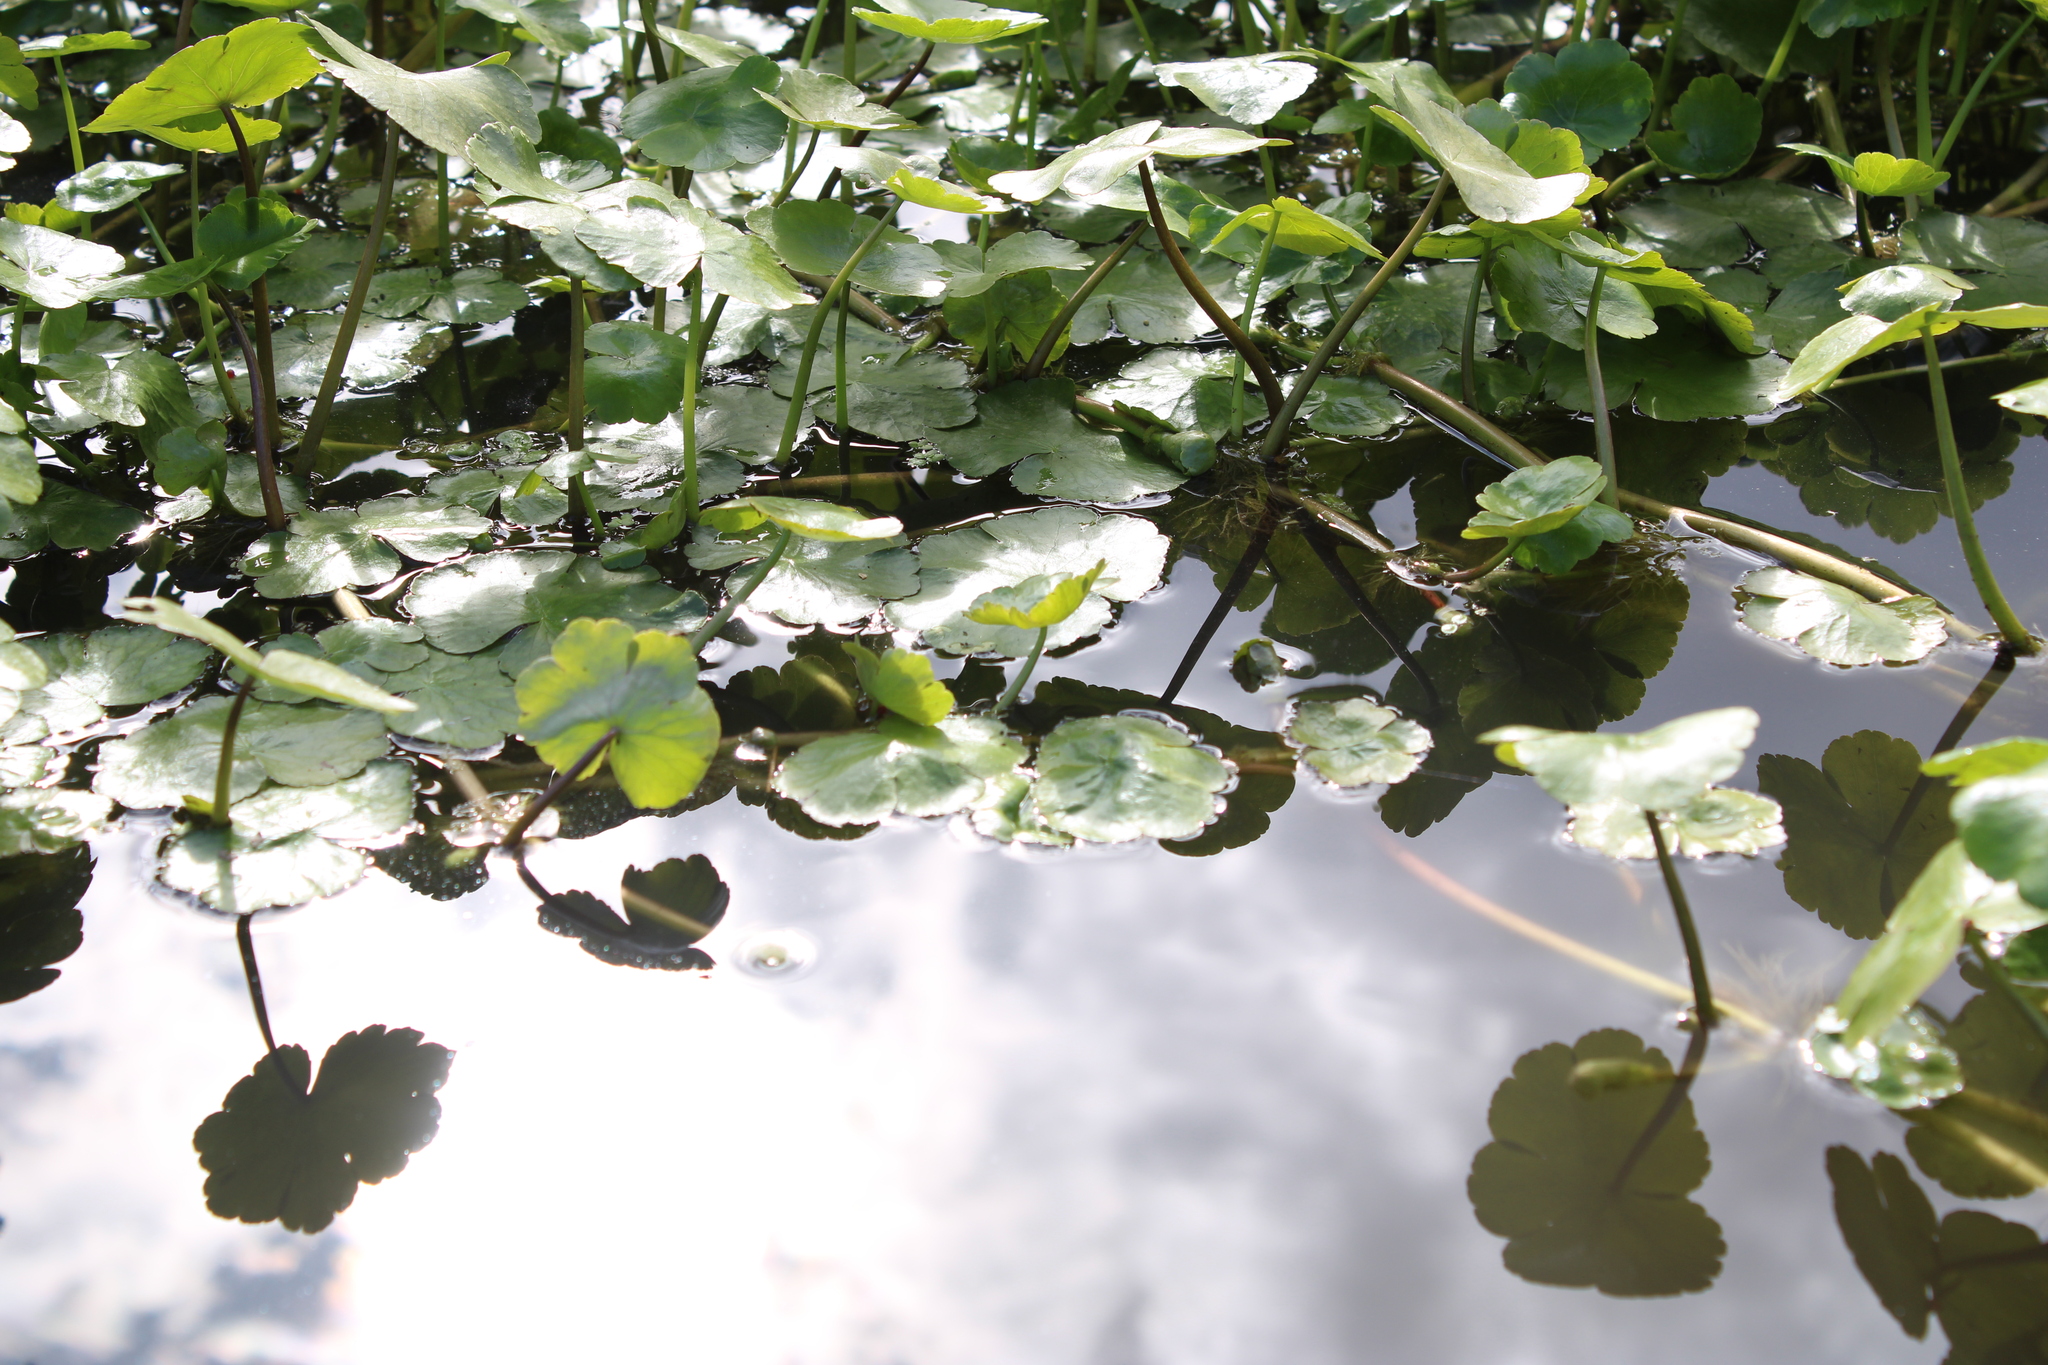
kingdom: Plantae
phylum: Tracheophyta
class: Magnoliopsida
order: Apiales
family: Araliaceae
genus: Hydrocotyle
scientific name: Hydrocotyle ranunculoides
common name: Floating pennywort
